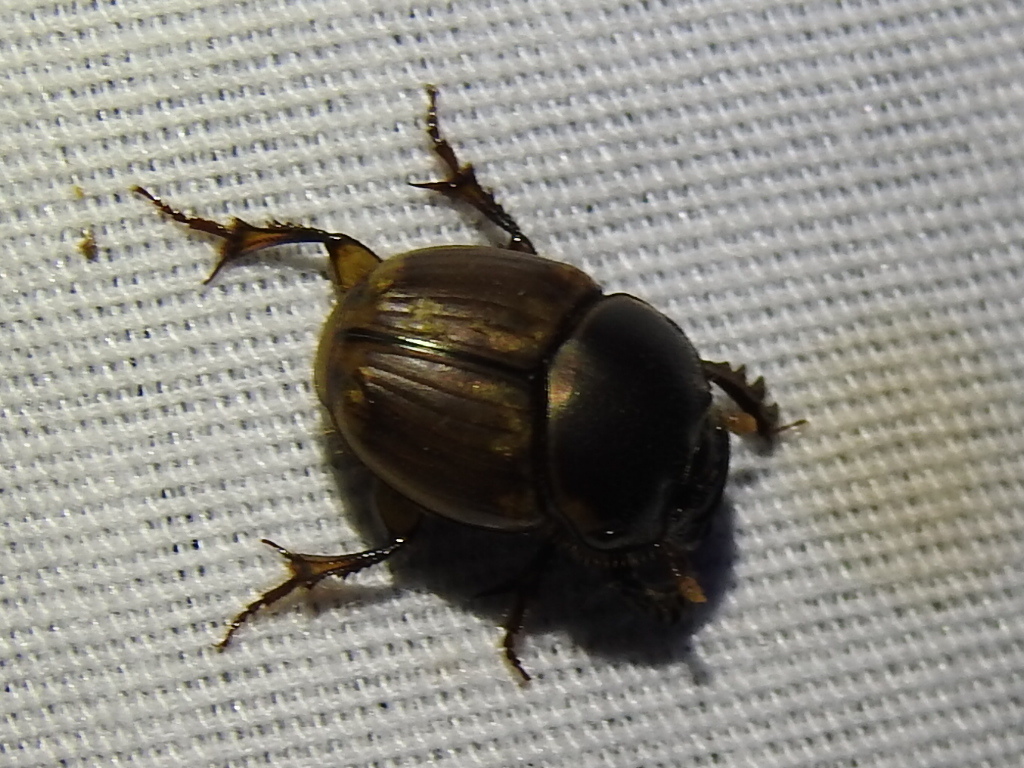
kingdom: Animalia
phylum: Arthropoda
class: Insecta
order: Coleoptera
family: Scarabaeidae
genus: Digitonthophagus
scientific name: Digitonthophagus gazella
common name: Brown dung beetle
